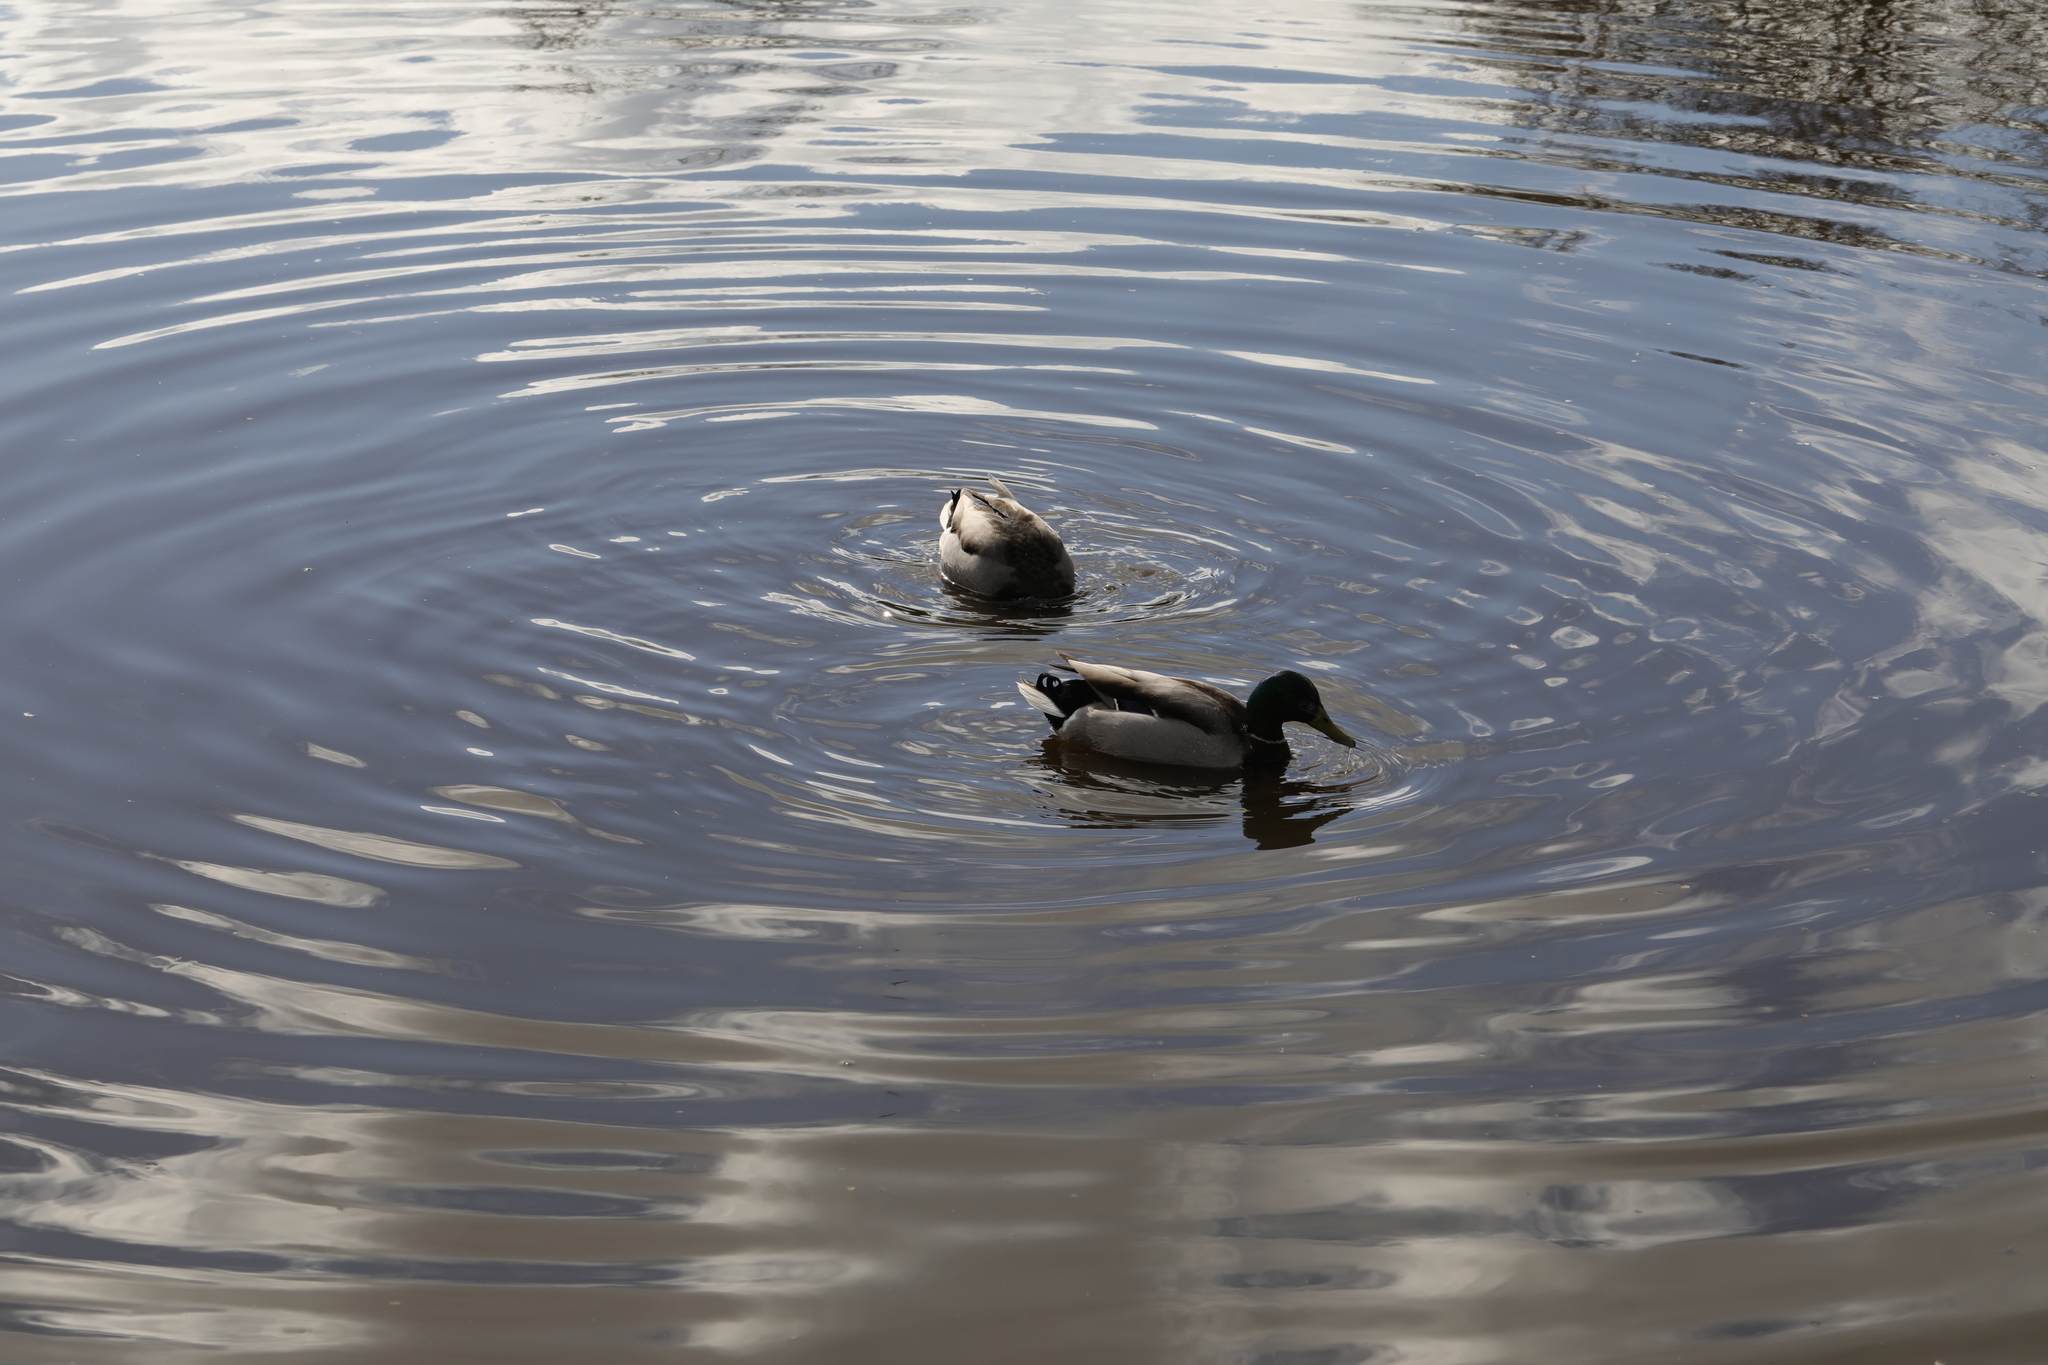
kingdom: Animalia
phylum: Chordata
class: Aves
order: Anseriformes
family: Anatidae
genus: Anas
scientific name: Anas platyrhynchos
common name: Mallard
